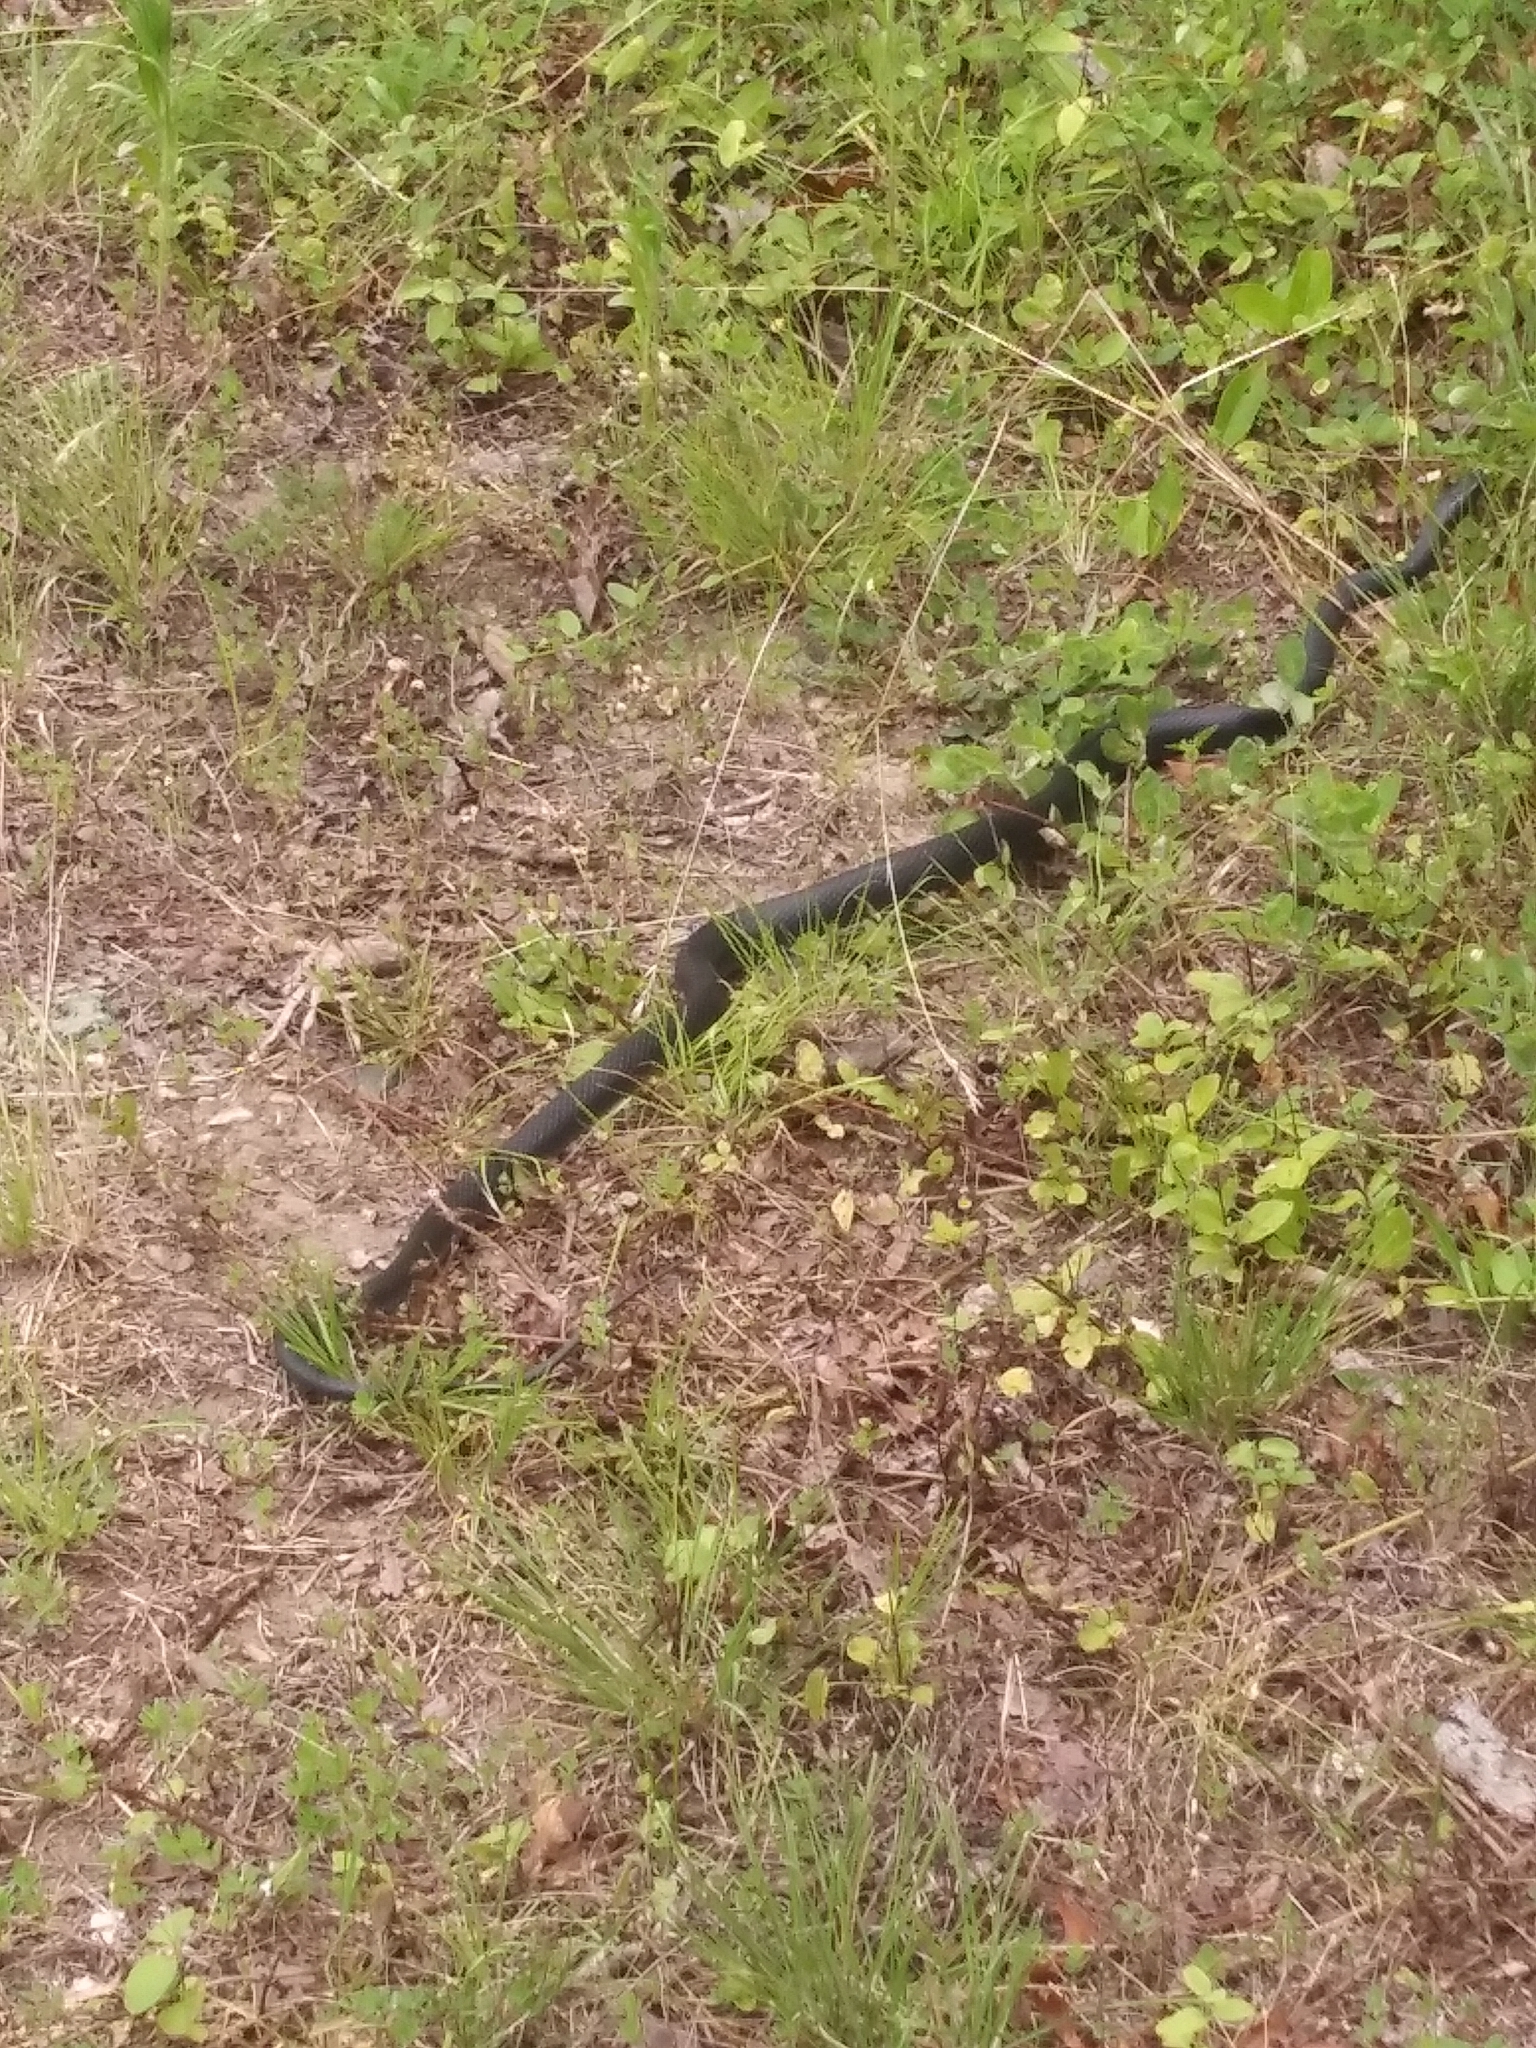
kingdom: Animalia
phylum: Chordata
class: Squamata
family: Colubridae
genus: Coluber
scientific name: Coluber constrictor
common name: Eastern racer
